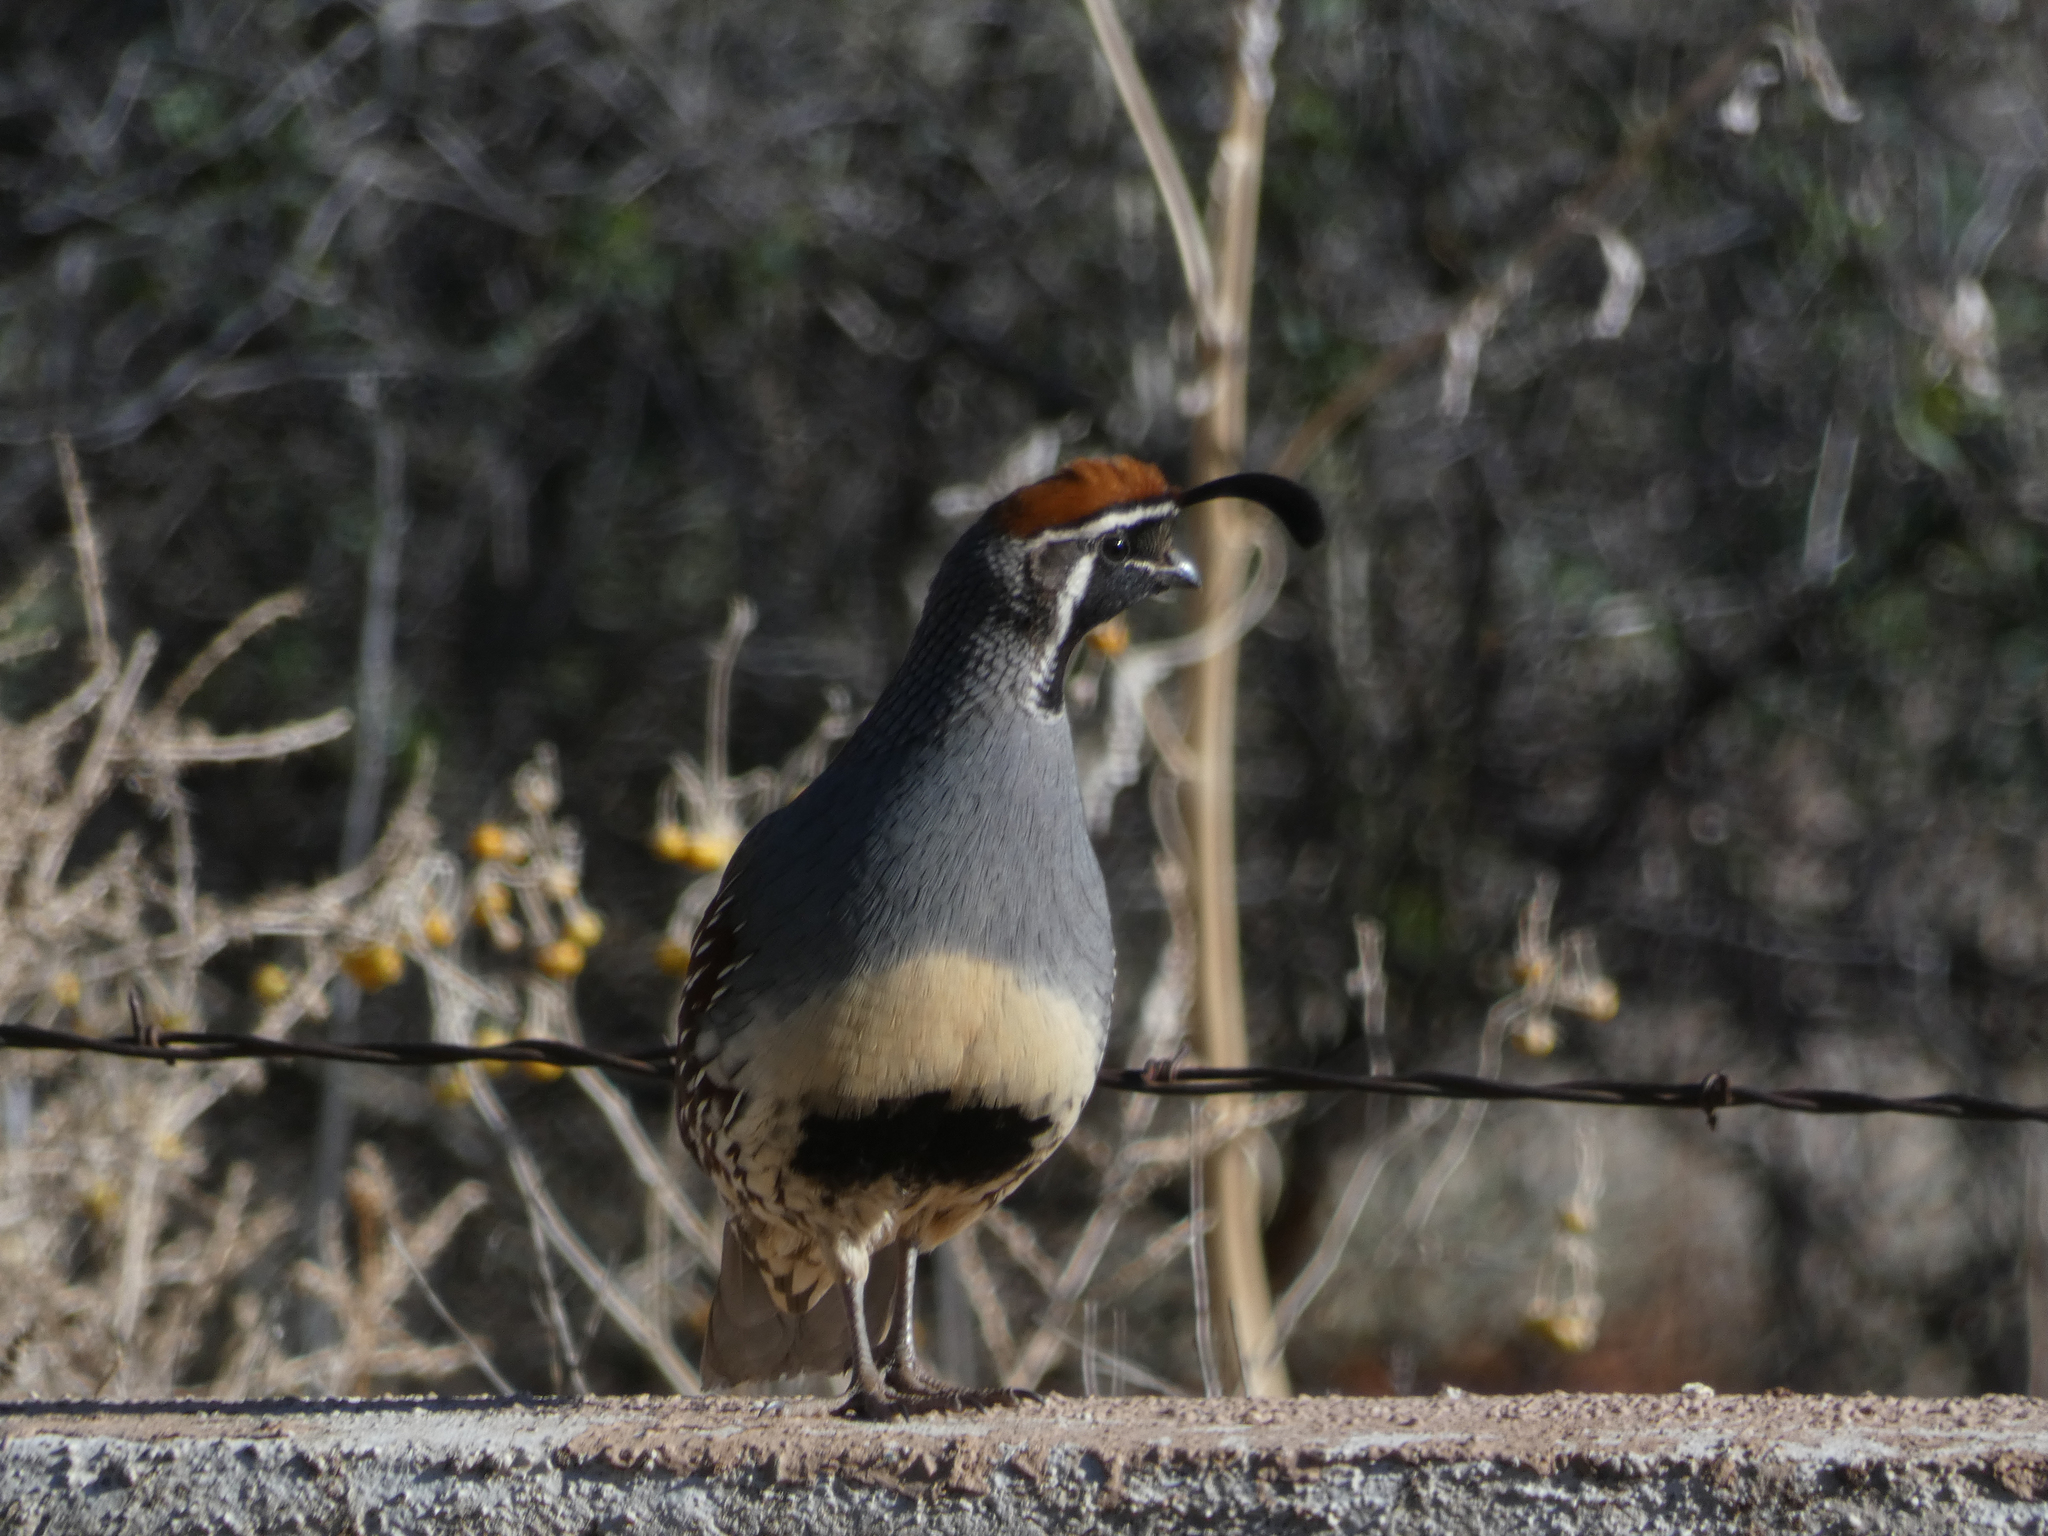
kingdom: Animalia
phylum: Chordata
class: Aves
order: Galliformes
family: Odontophoridae
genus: Callipepla
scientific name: Callipepla gambelii
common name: Gambel's quail
